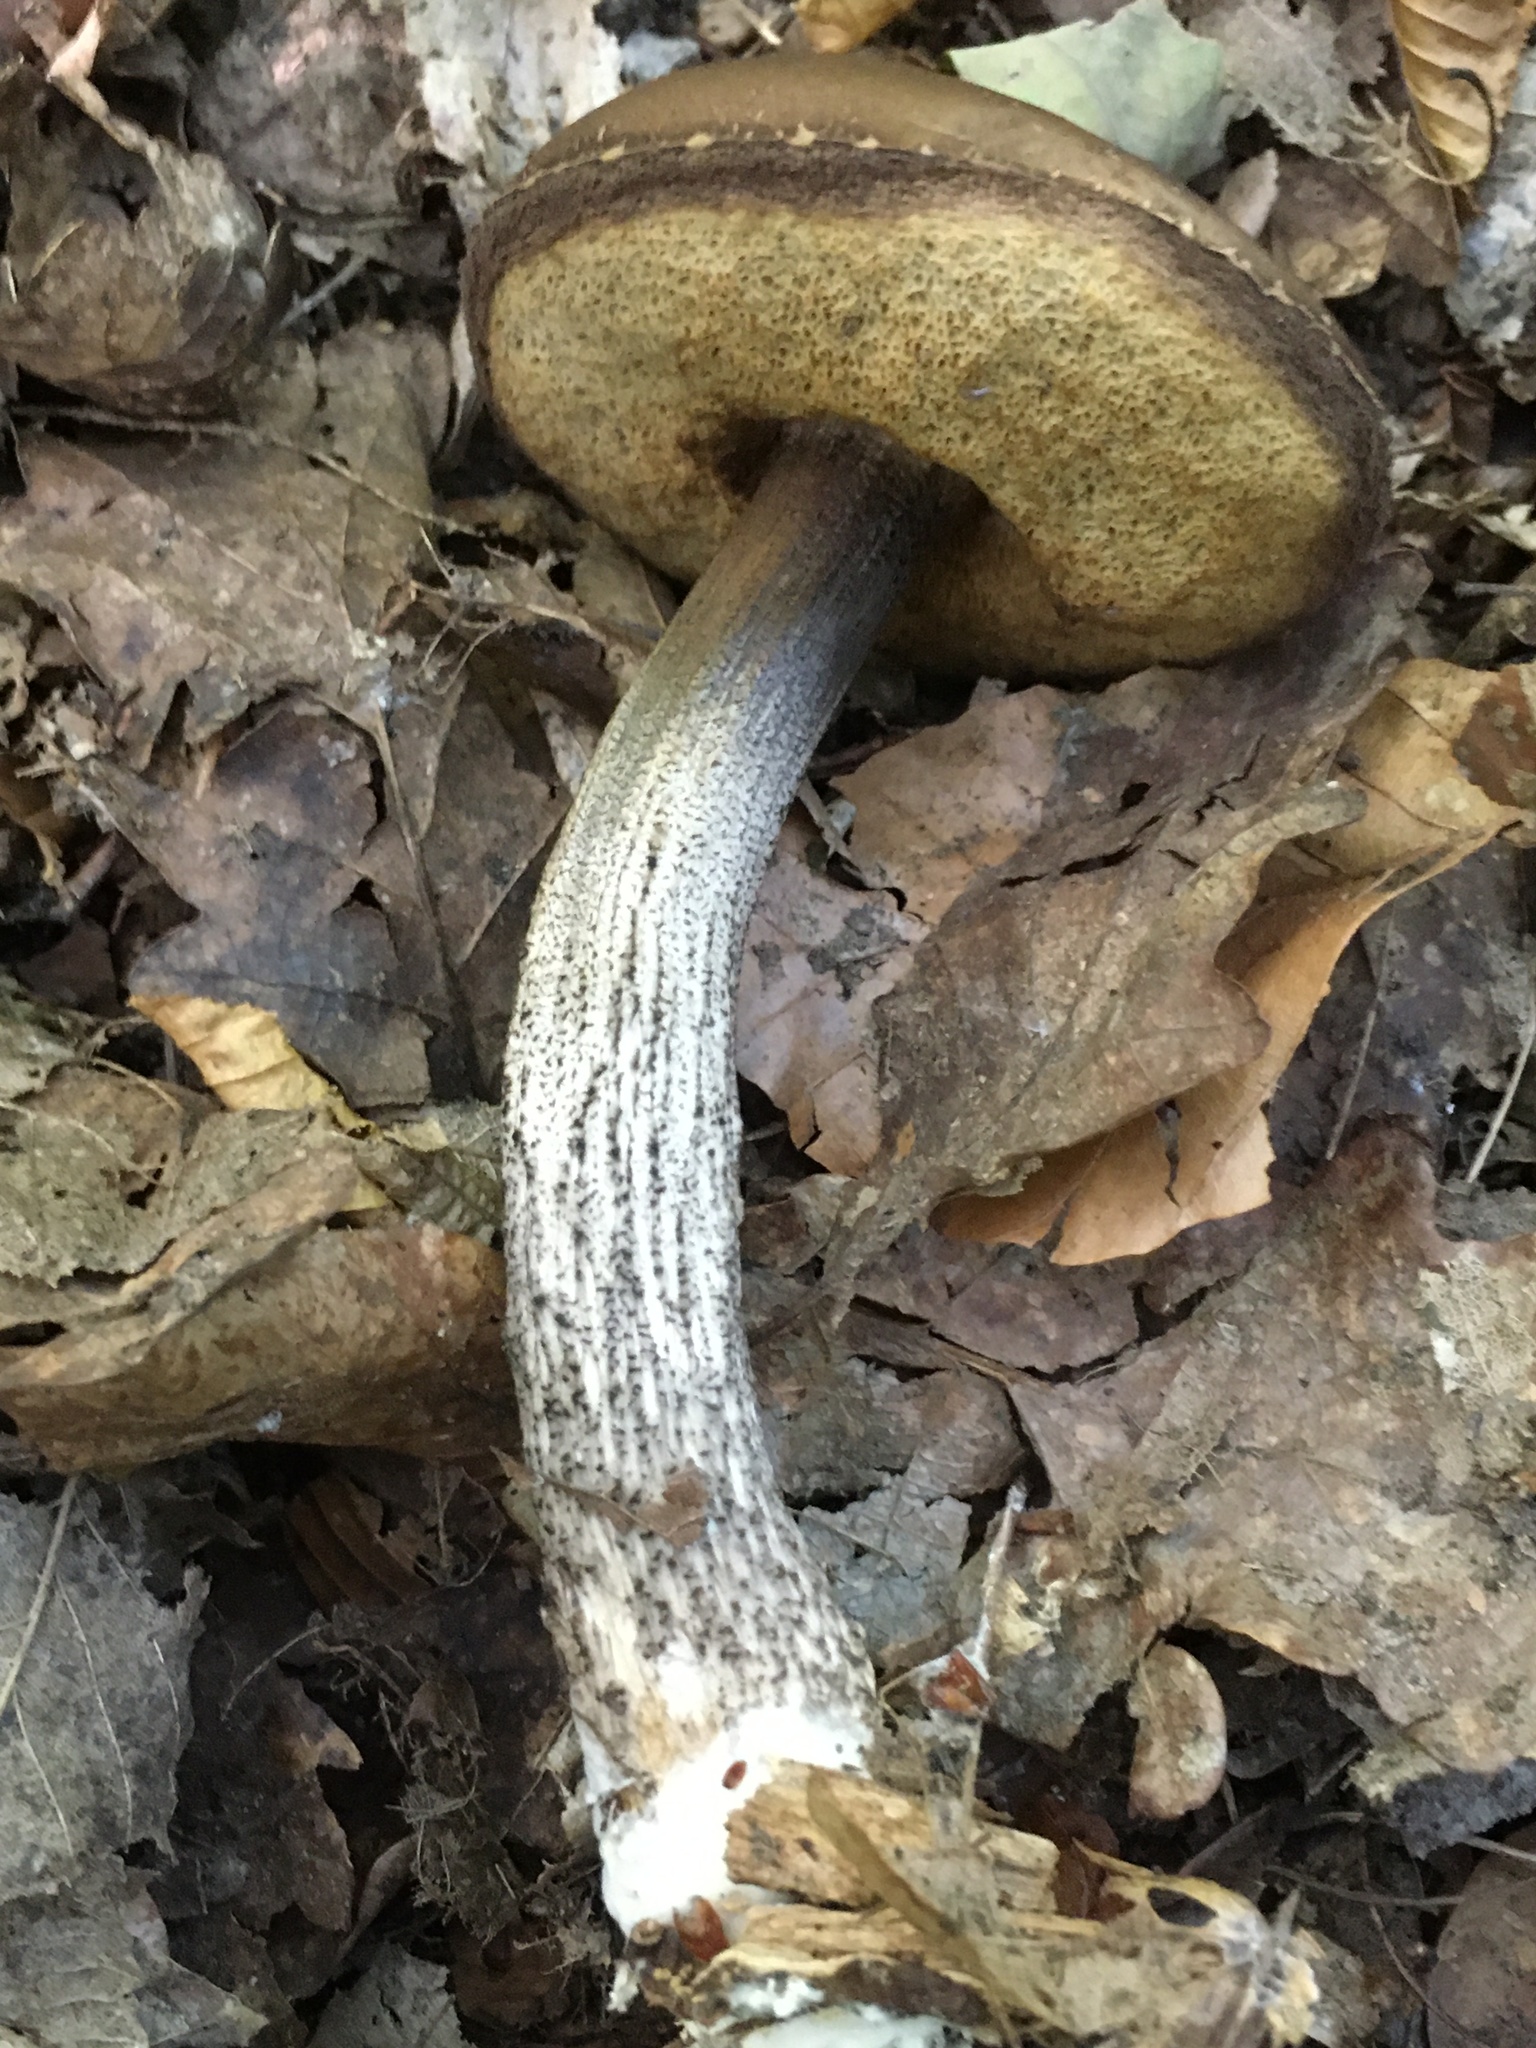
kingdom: Fungi
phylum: Basidiomycota
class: Agaricomycetes
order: Boletales
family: Boletaceae
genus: Leccinum
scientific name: Leccinum scabrum
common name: Blushing bolete
